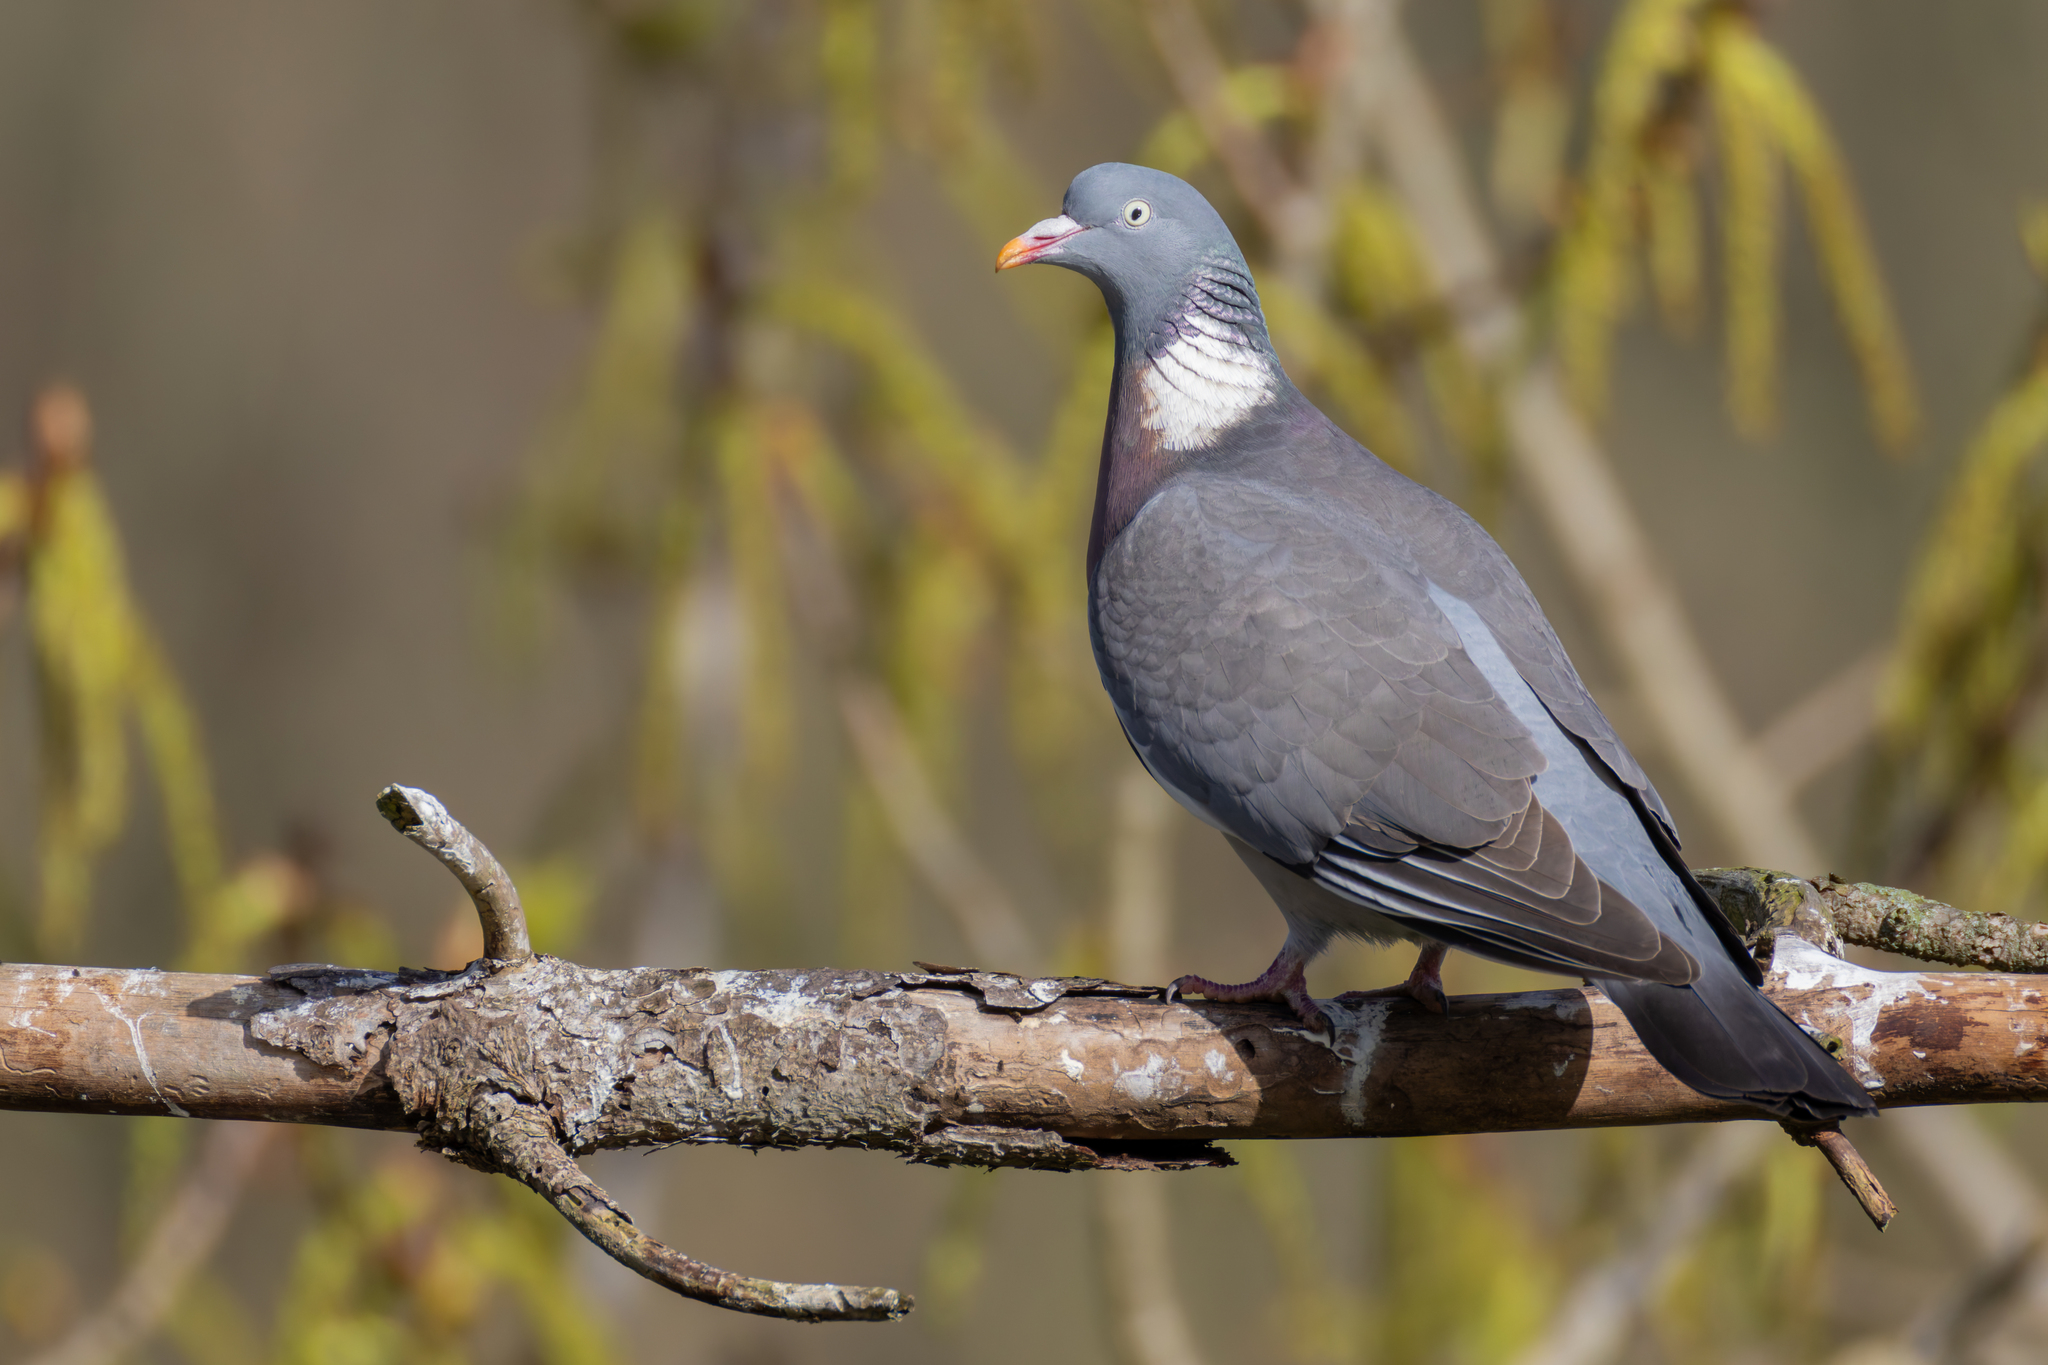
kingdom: Animalia
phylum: Chordata
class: Aves
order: Columbiformes
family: Columbidae
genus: Columba
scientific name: Columba palumbus
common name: Common wood pigeon
